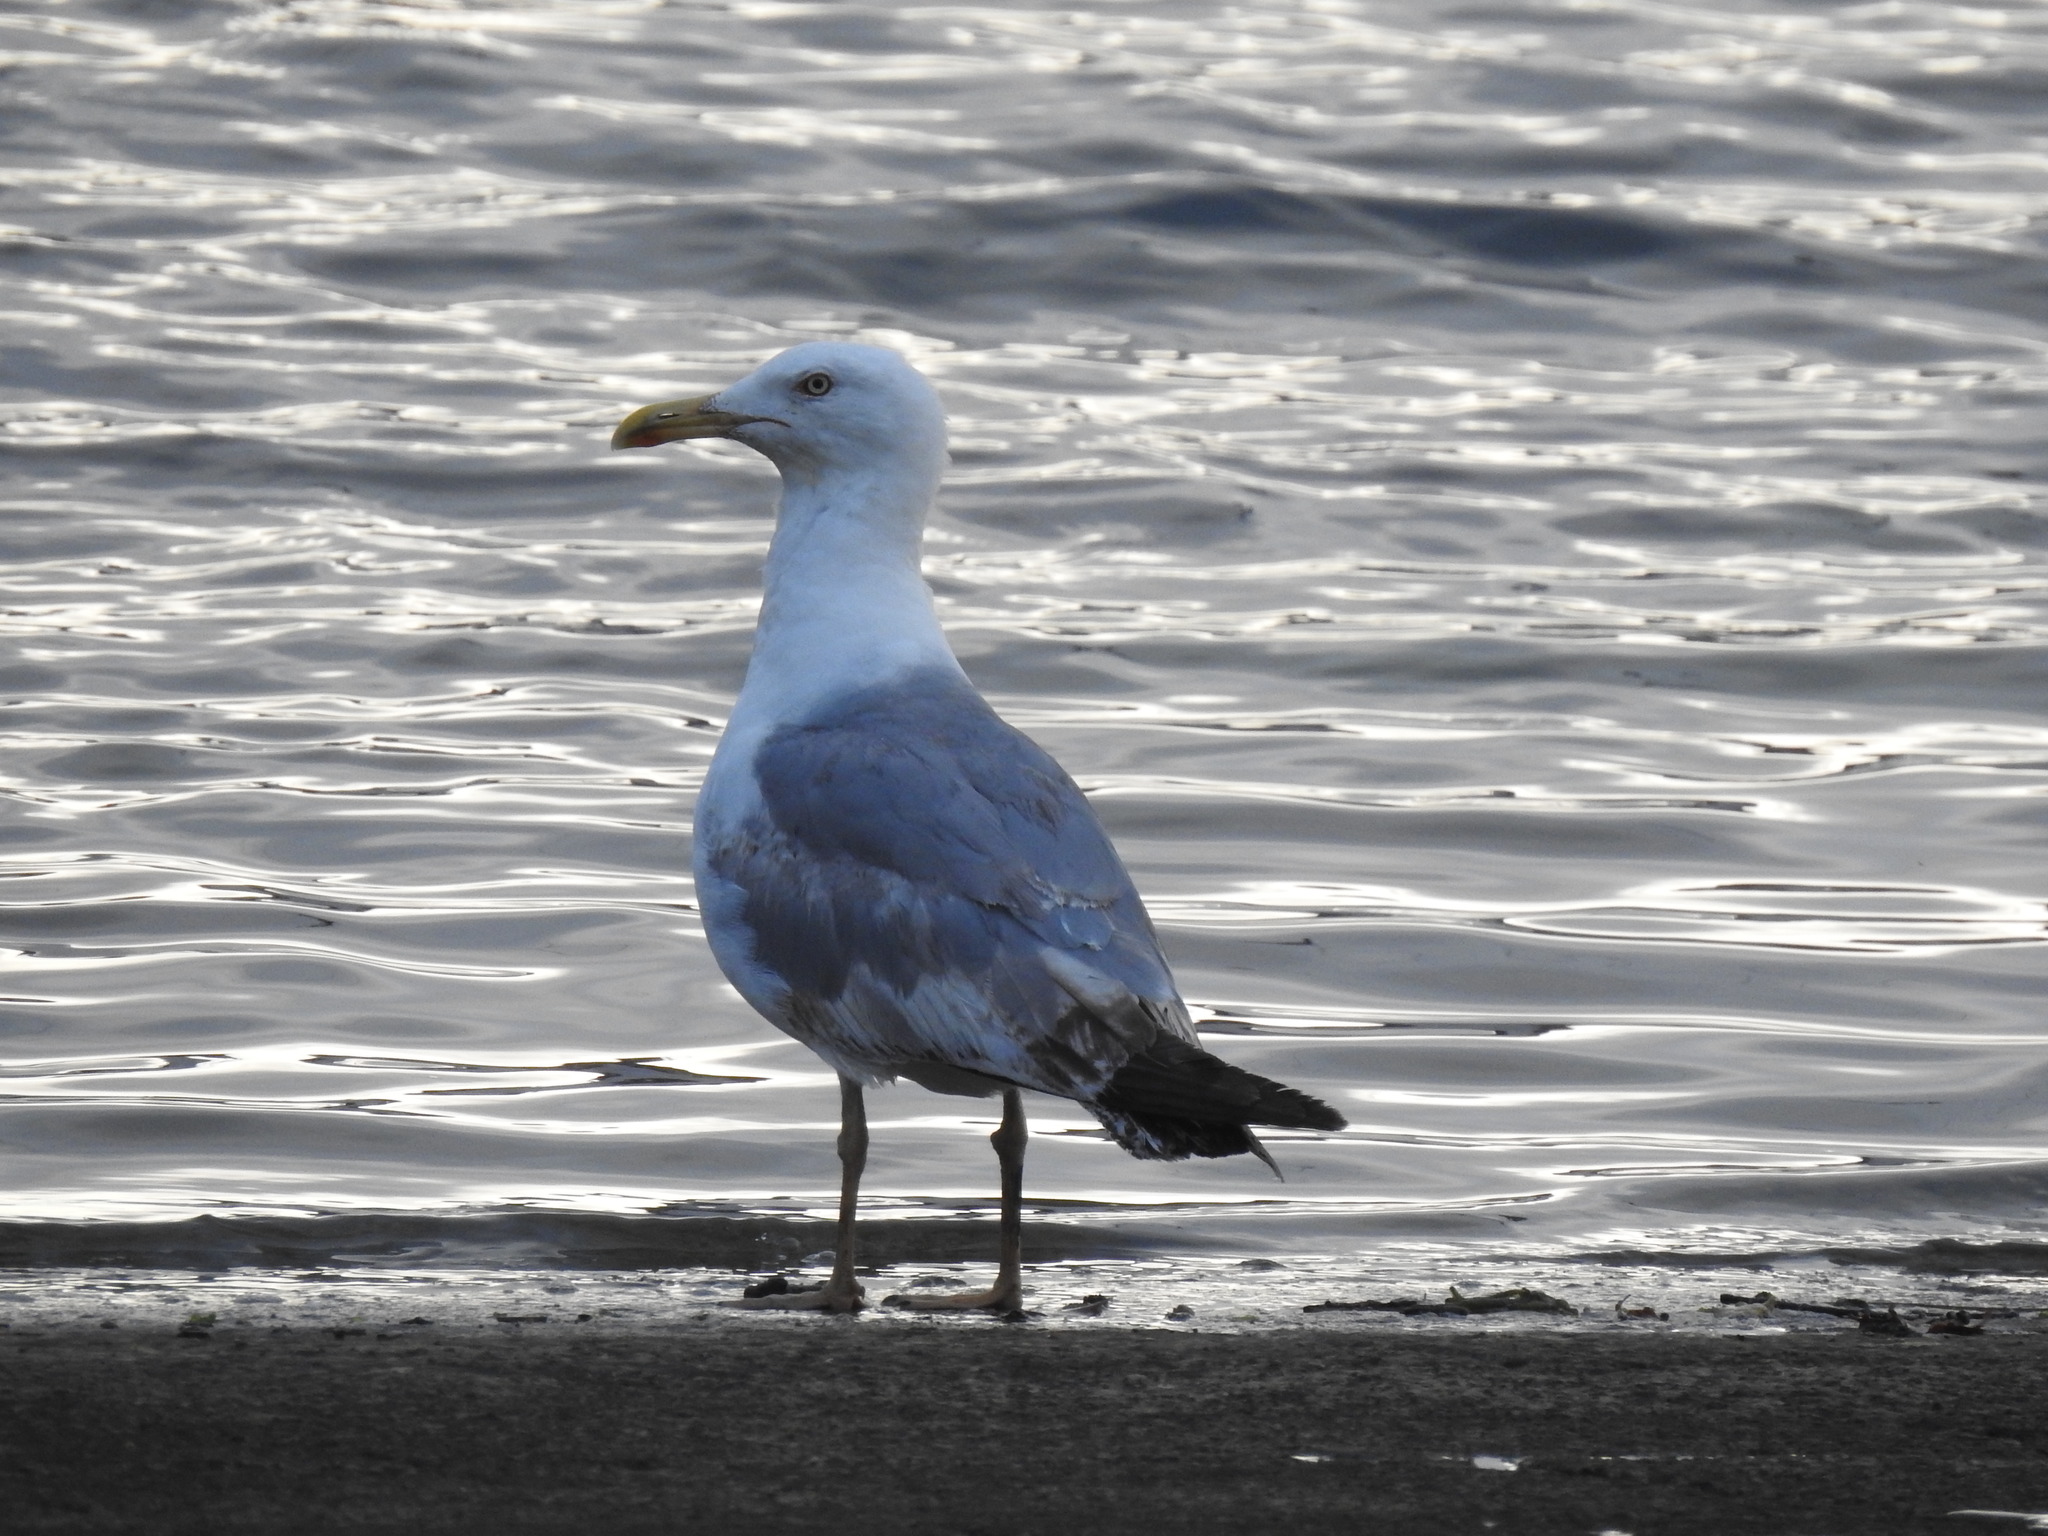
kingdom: Animalia
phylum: Chordata
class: Aves
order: Charadriiformes
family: Laridae
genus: Larus
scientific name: Larus michahellis
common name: Yellow-legged gull
